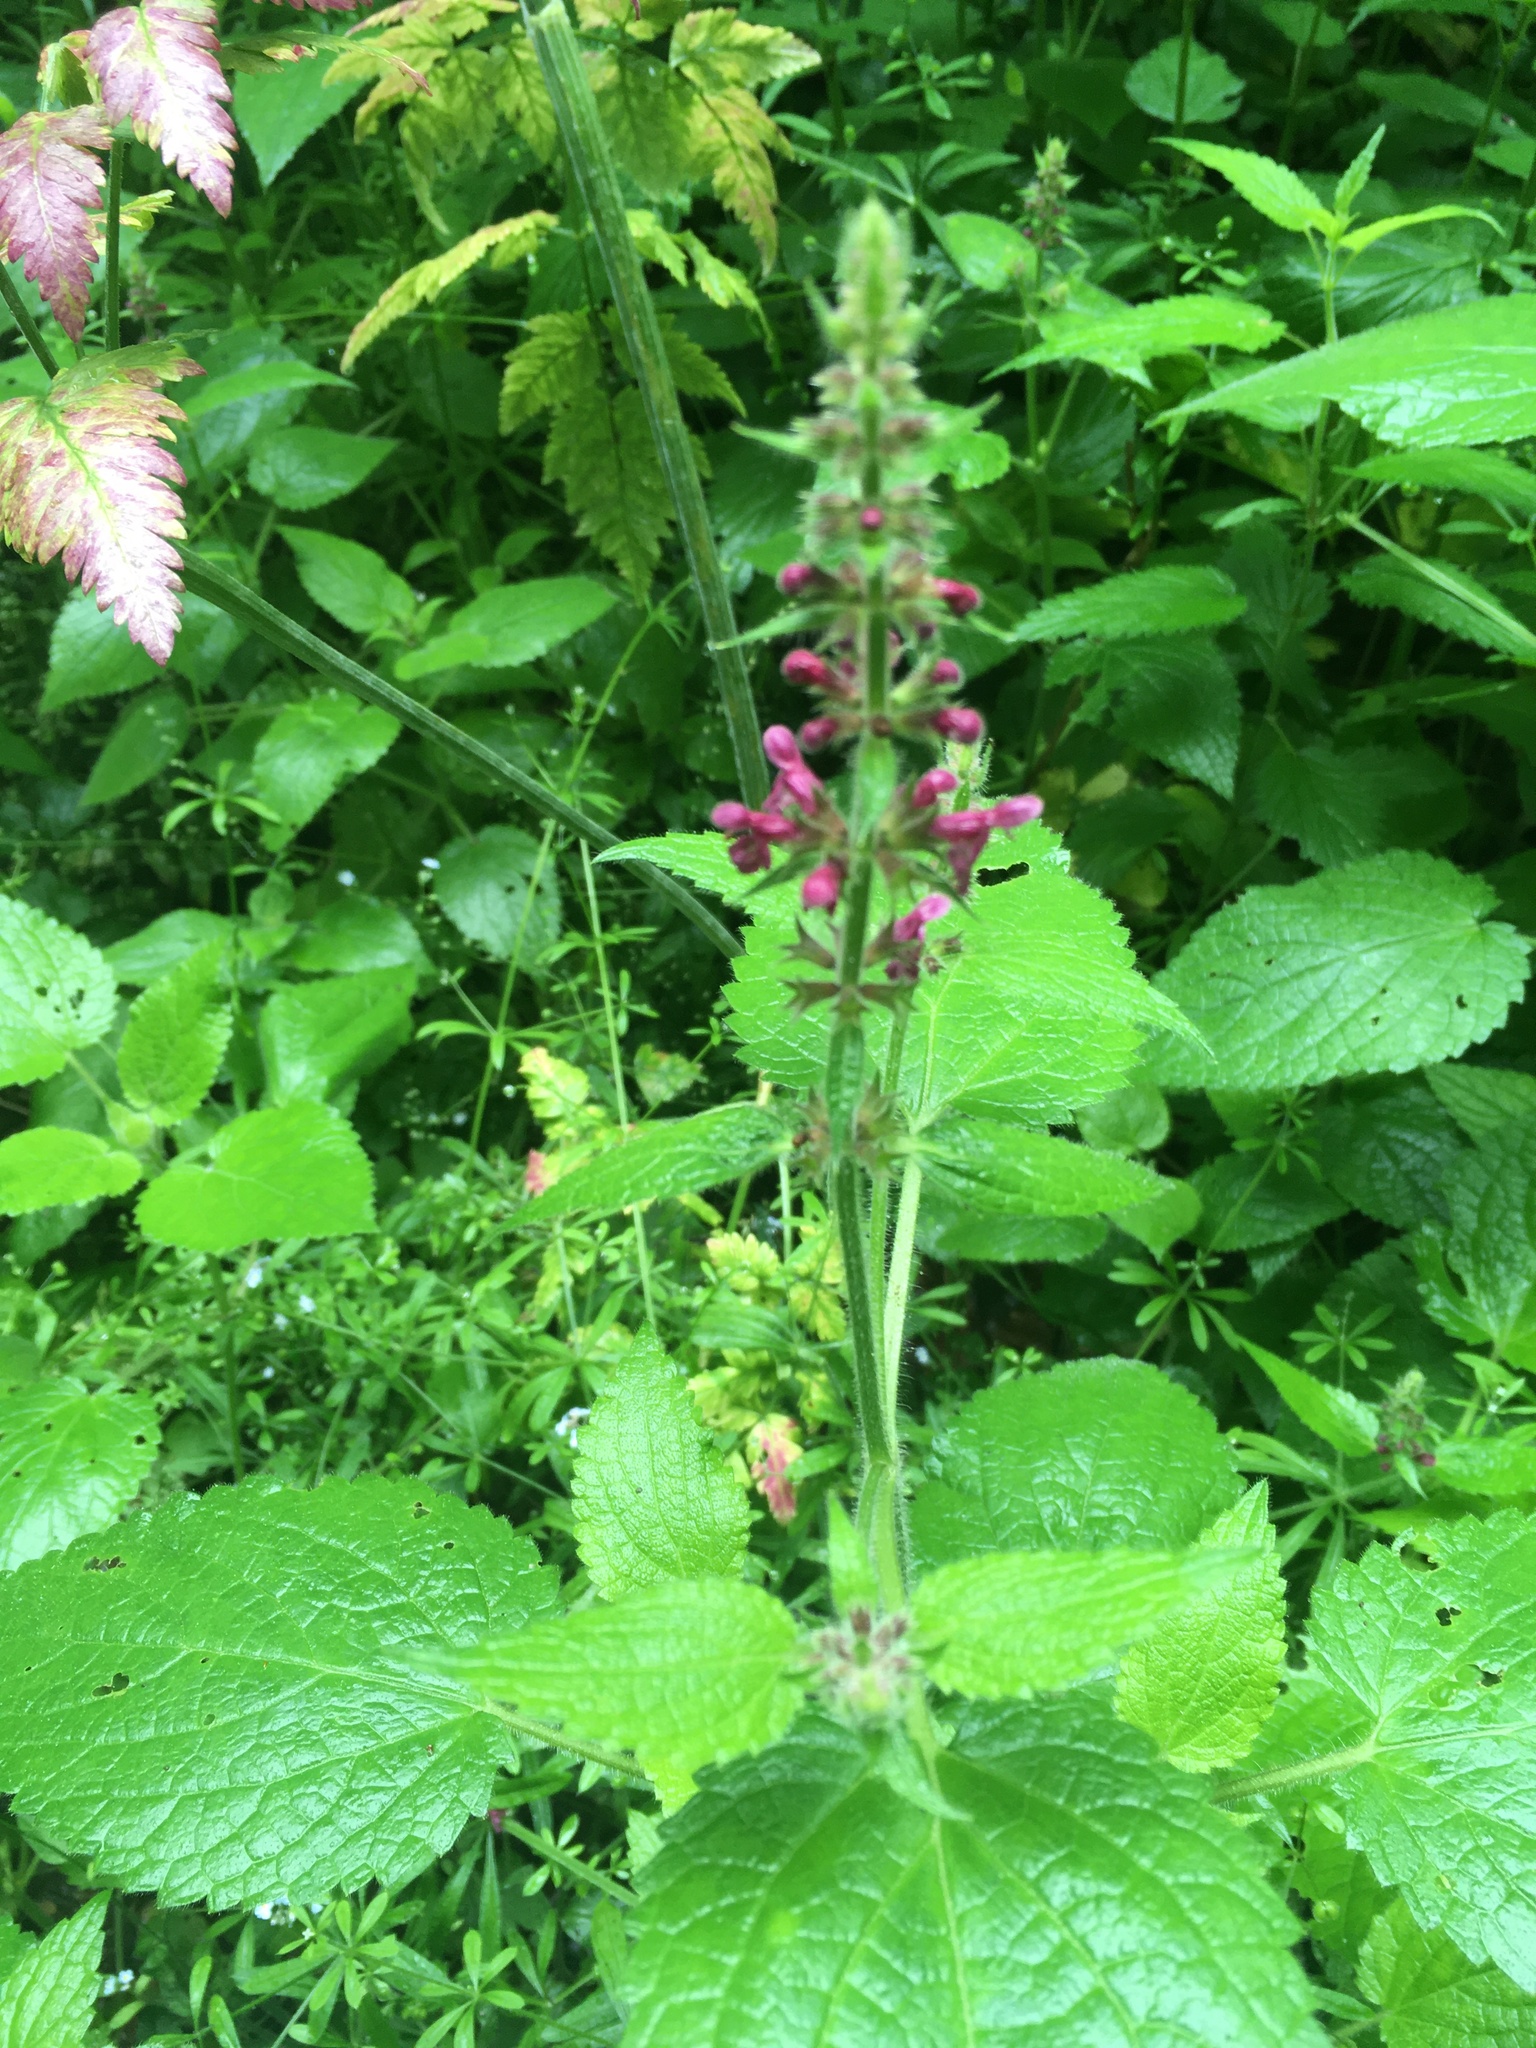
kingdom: Plantae
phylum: Tracheophyta
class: Magnoliopsida
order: Lamiales
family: Lamiaceae
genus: Stachys
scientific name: Stachys sylvatica
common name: Hedge woundwort
